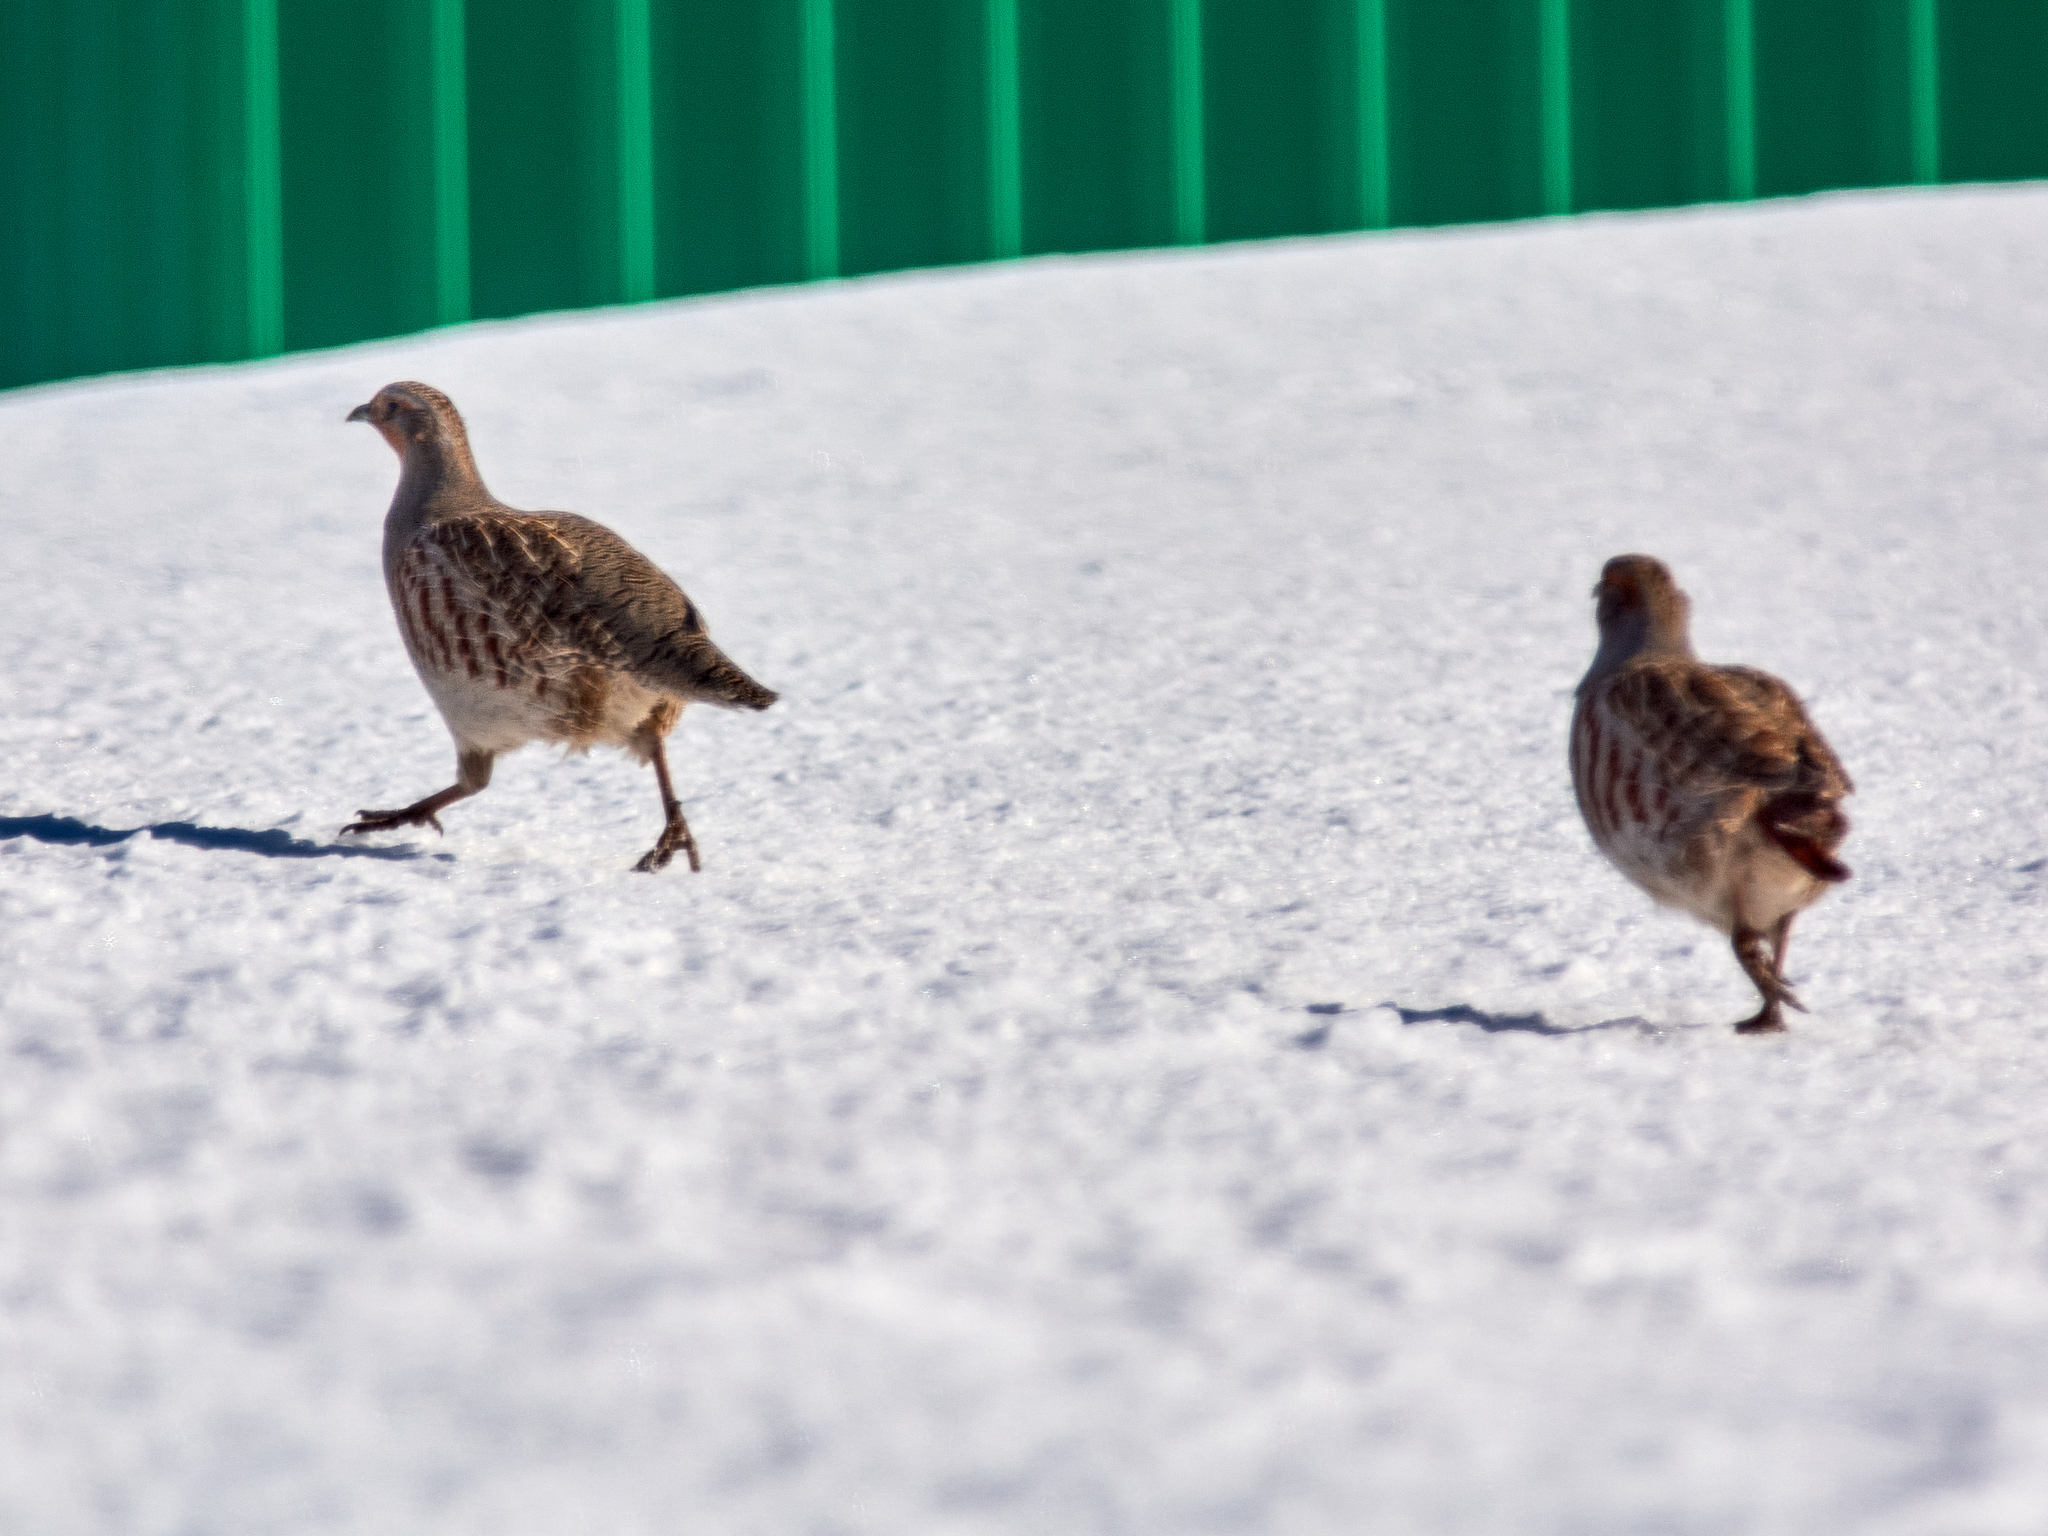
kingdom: Animalia
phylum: Chordata
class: Aves
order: Galliformes
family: Phasianidae
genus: Perdix
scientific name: Perdix perdix
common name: Grey partridge
